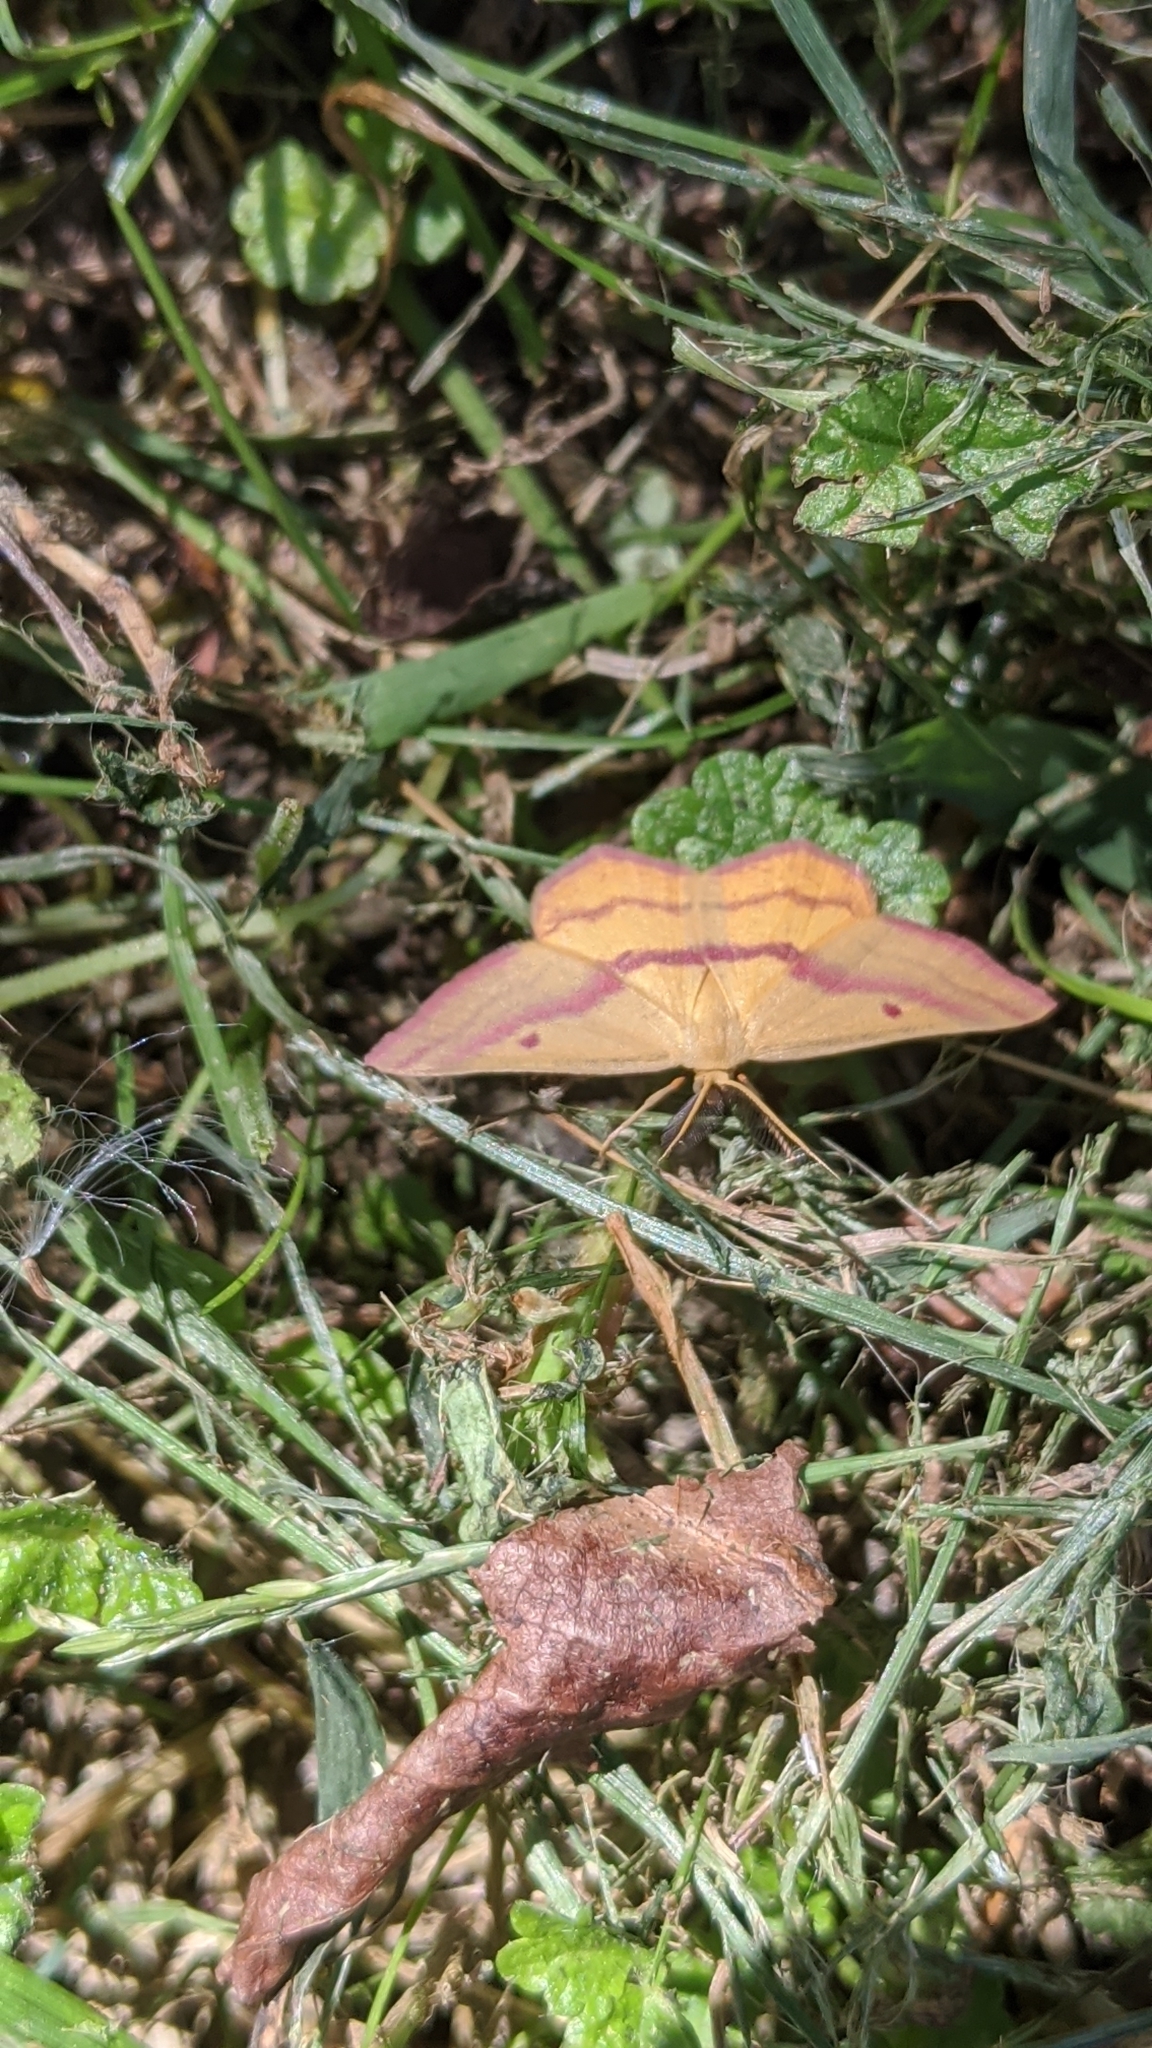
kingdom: Animalia
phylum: Arthropoda
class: Insecta
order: Lepidoptera
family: Geometridae
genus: Haematopis
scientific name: Haematopis grataria
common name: Chickweed geometer
